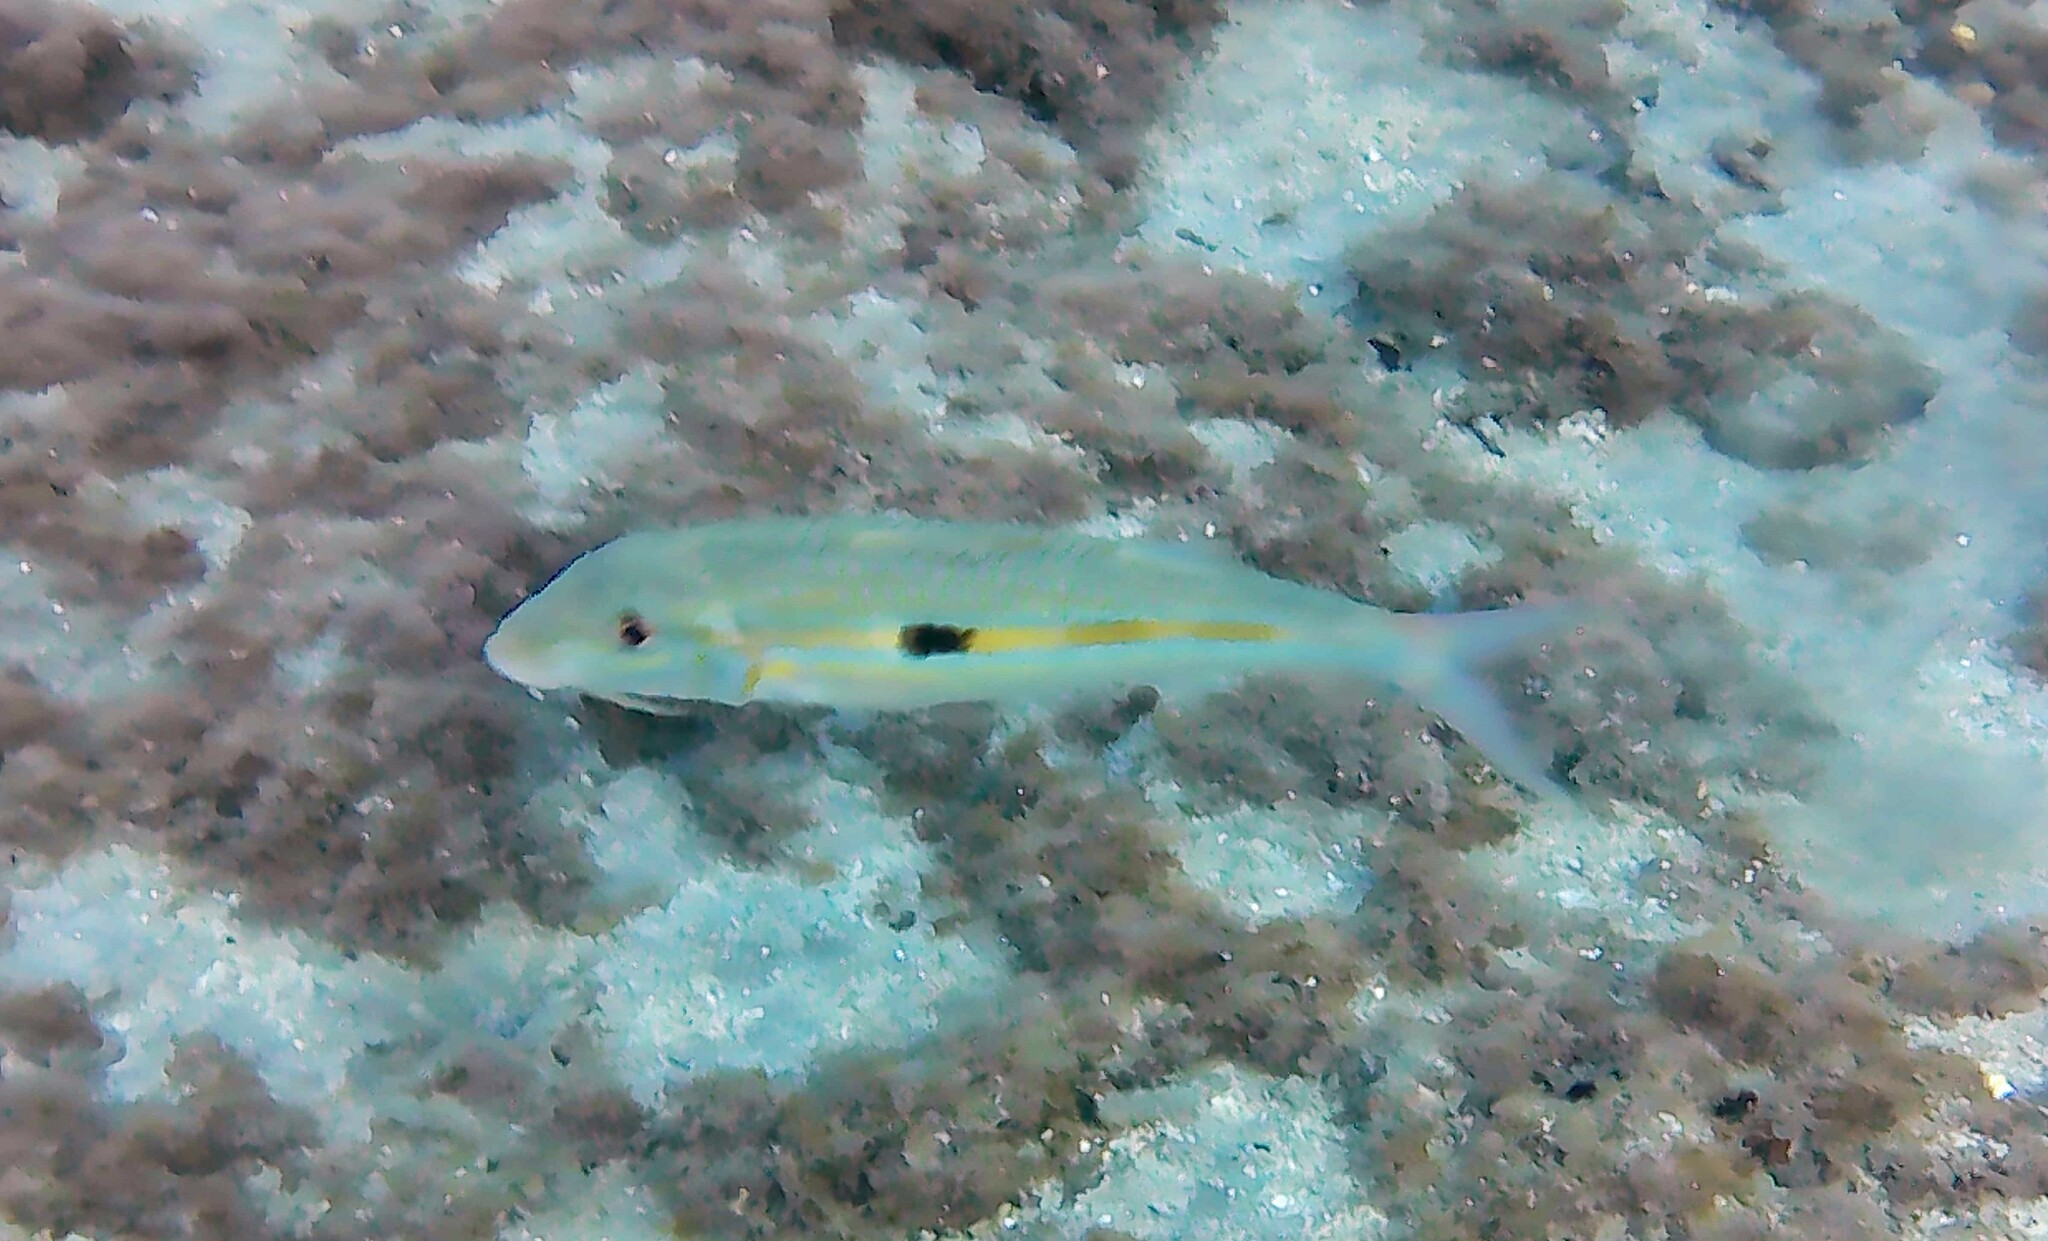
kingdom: Animalia
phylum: Chordata
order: Perciformes
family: Mullidae
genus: Mulloidichthys
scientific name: Mulloidichthys flavolineatus
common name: Yellowstripe goatfish
